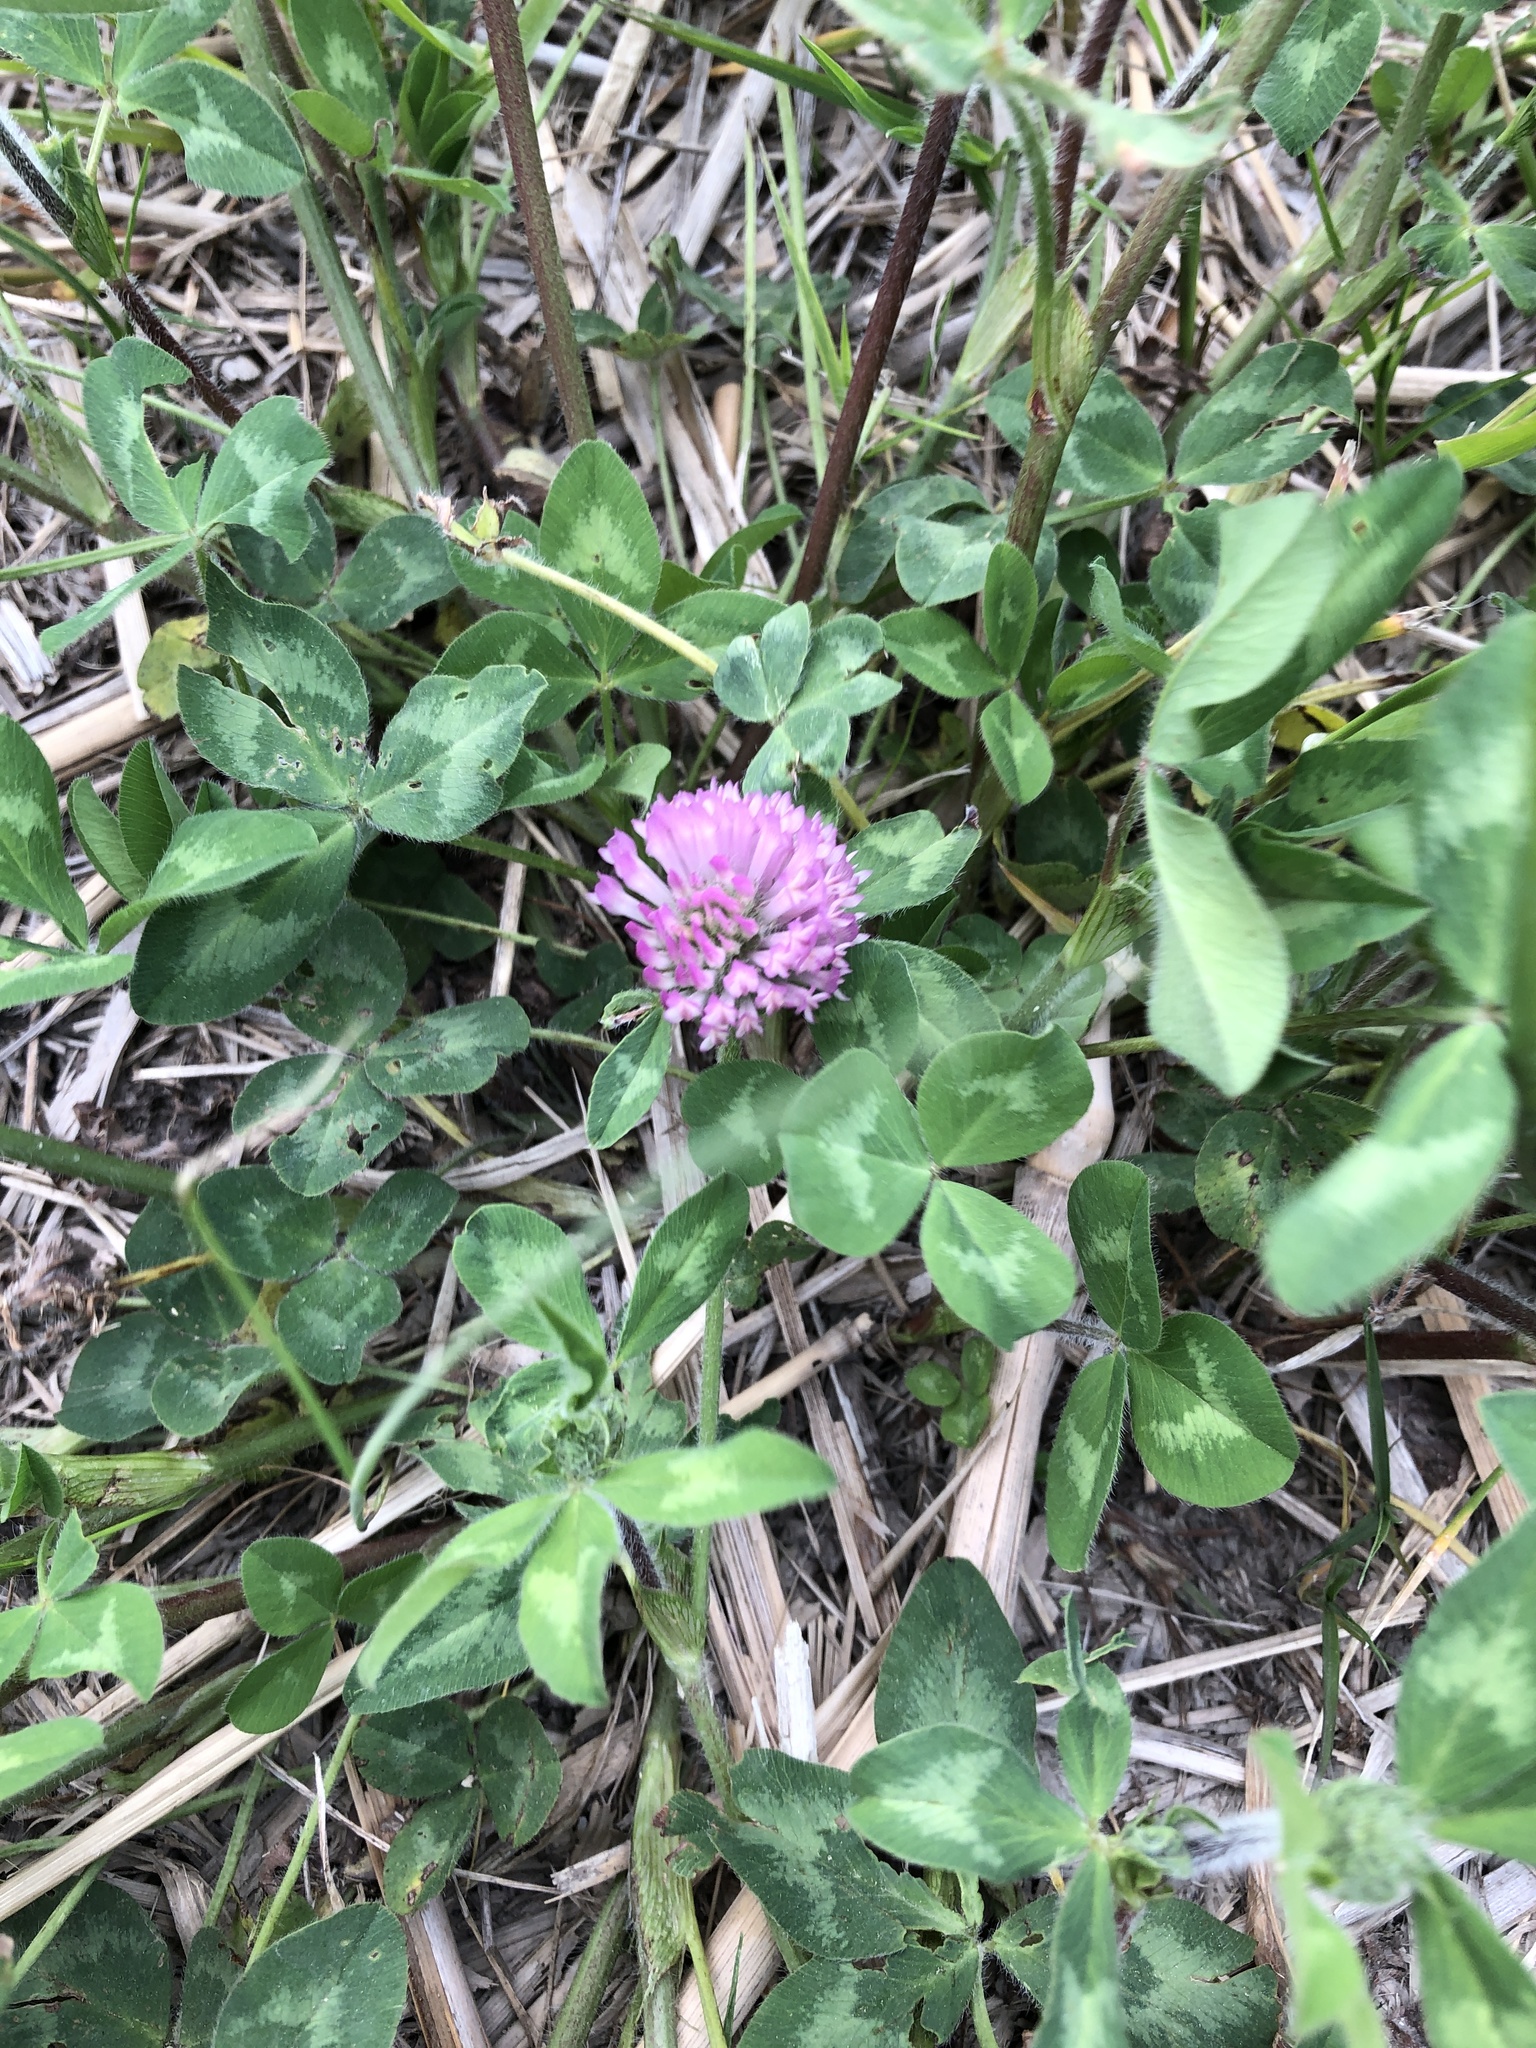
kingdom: Plantae
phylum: Tracheophyta
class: Magnoliopsida
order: Fabales
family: Fabaceae
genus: Trifolium
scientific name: Trifolium pratense
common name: Red clover
